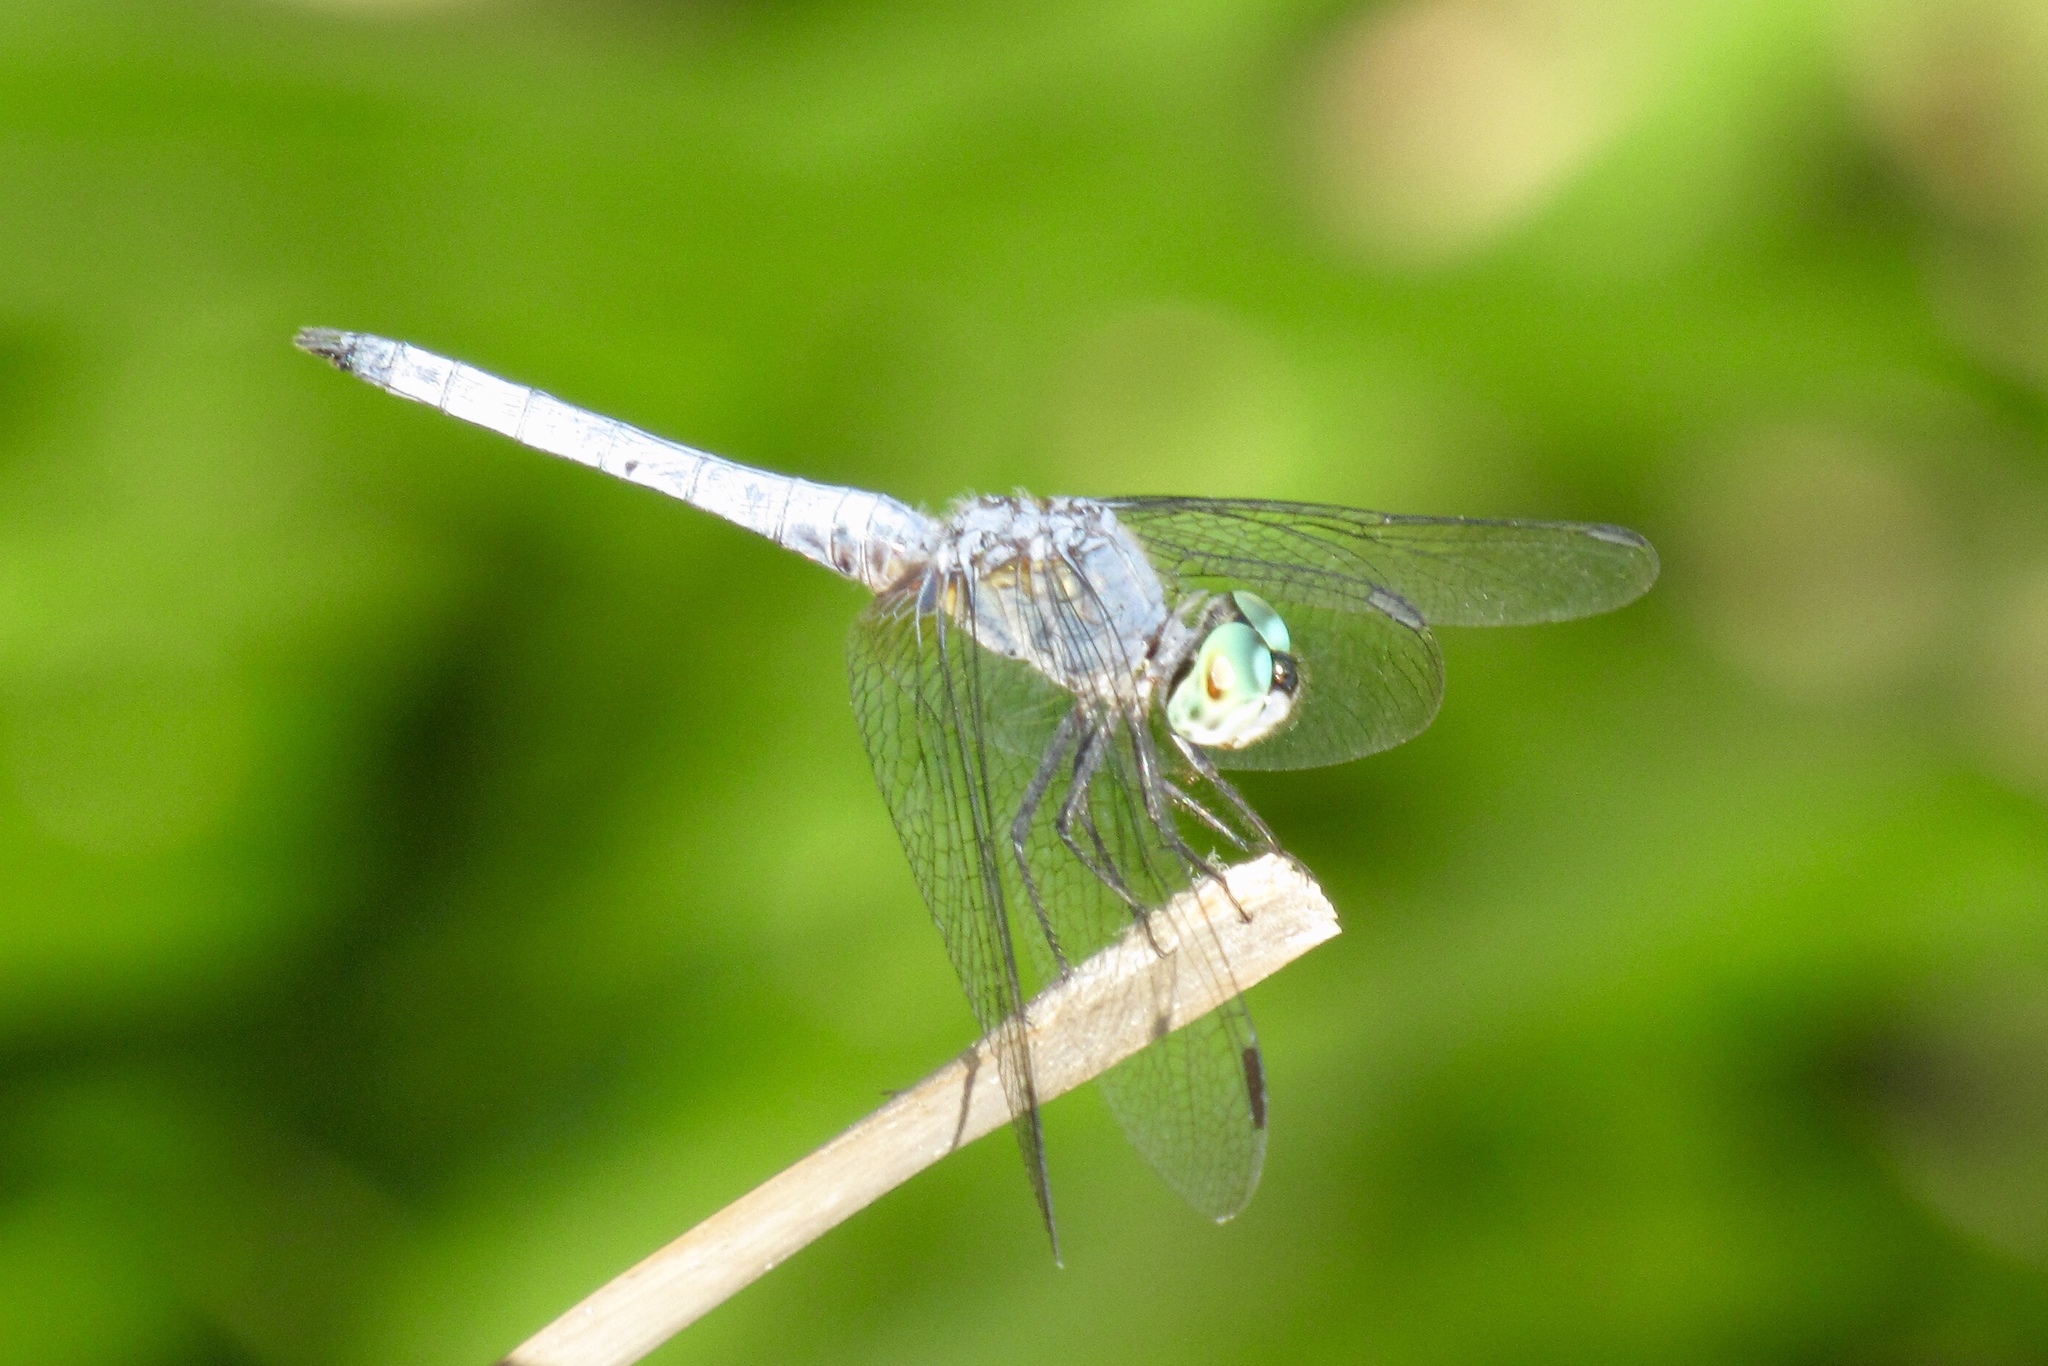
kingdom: Animalia
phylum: Arthropoda
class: Insecta
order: Odonata
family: Libellulidae
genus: Pachydiplax
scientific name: Pachydiplax longipennis
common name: Blue dasher
